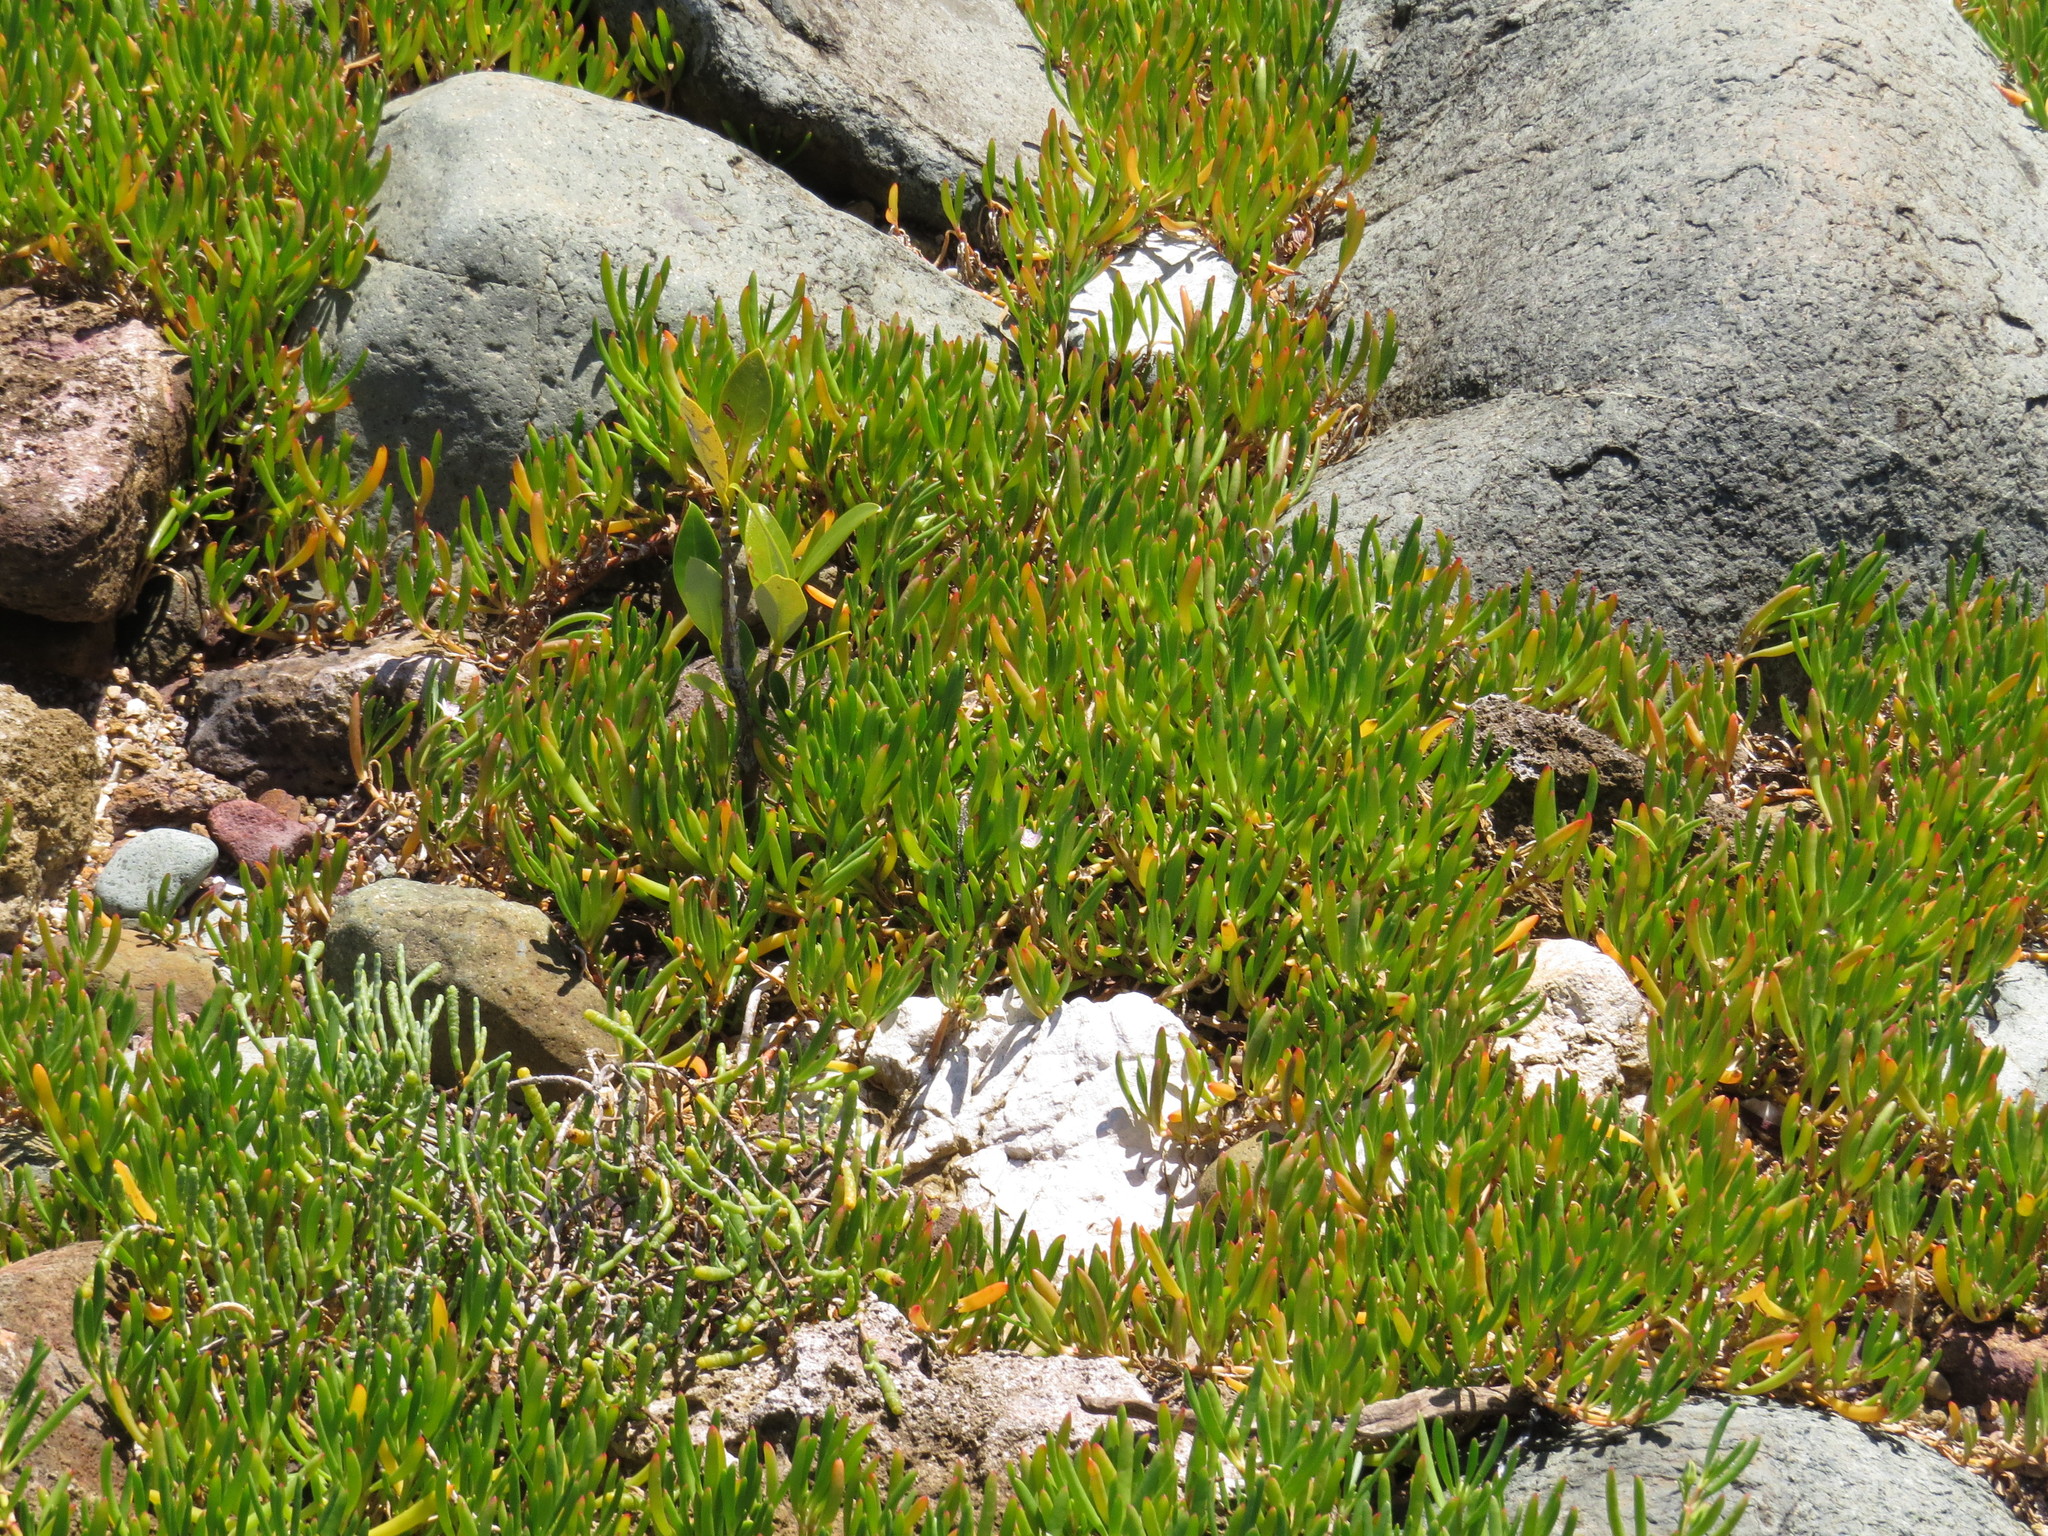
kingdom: Plantae
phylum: Tracheophyta
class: Magnoliopsida
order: Caryophyllales
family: Aizoaceae
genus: Sesuvium
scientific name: Sesuvium portulacastrum
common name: Sea-purslane
